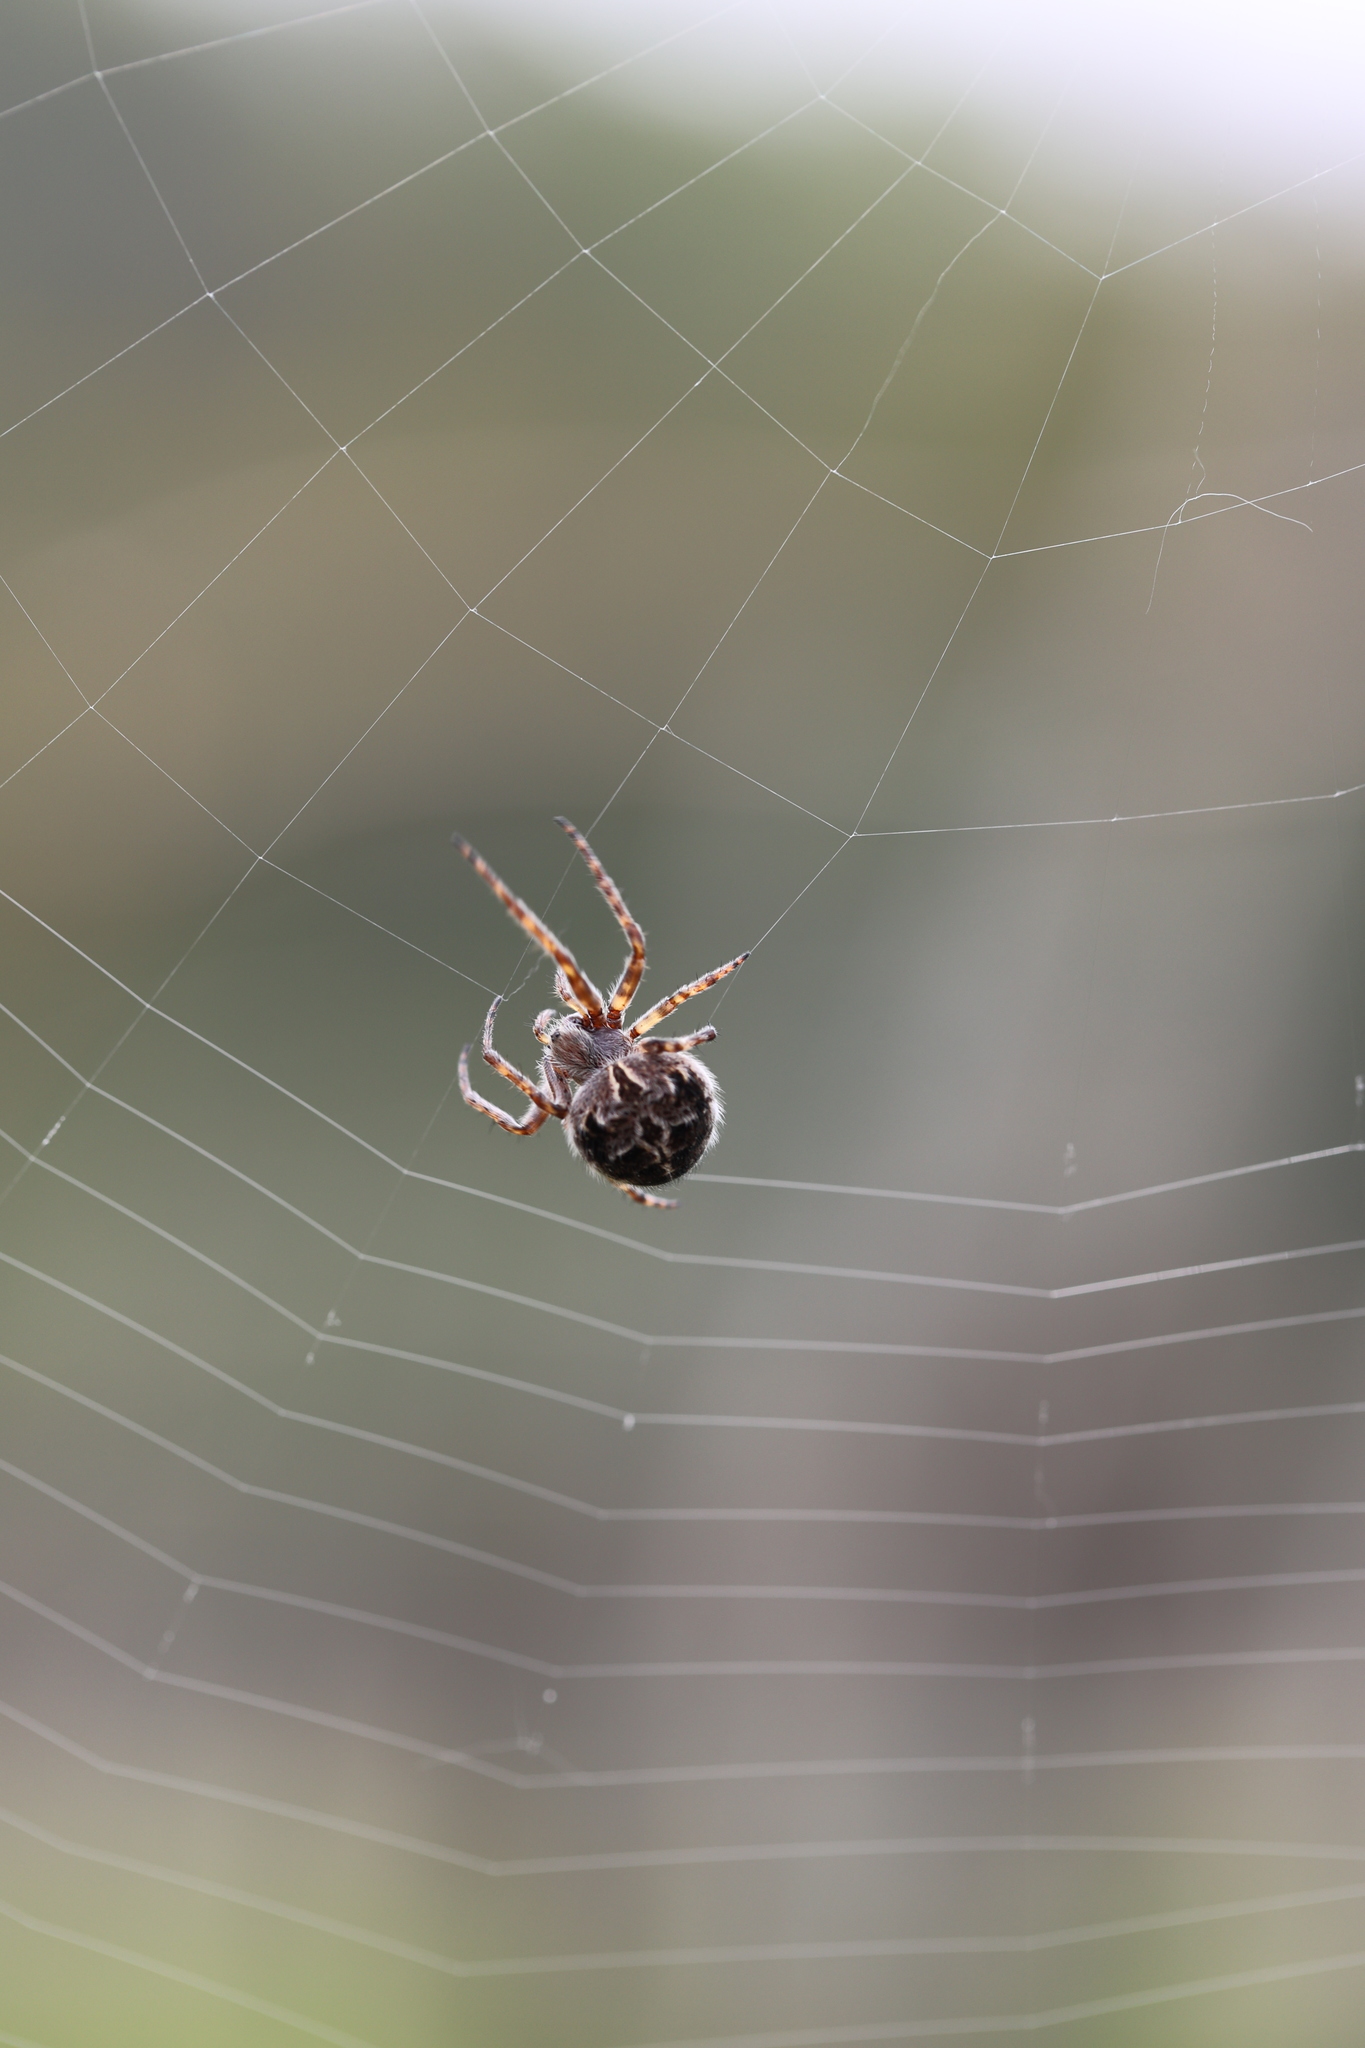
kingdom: Animalia
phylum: Arthropoda
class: Arachnida
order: Araneae
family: Araneidae
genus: Agalenatea
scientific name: Agalenatea redii
